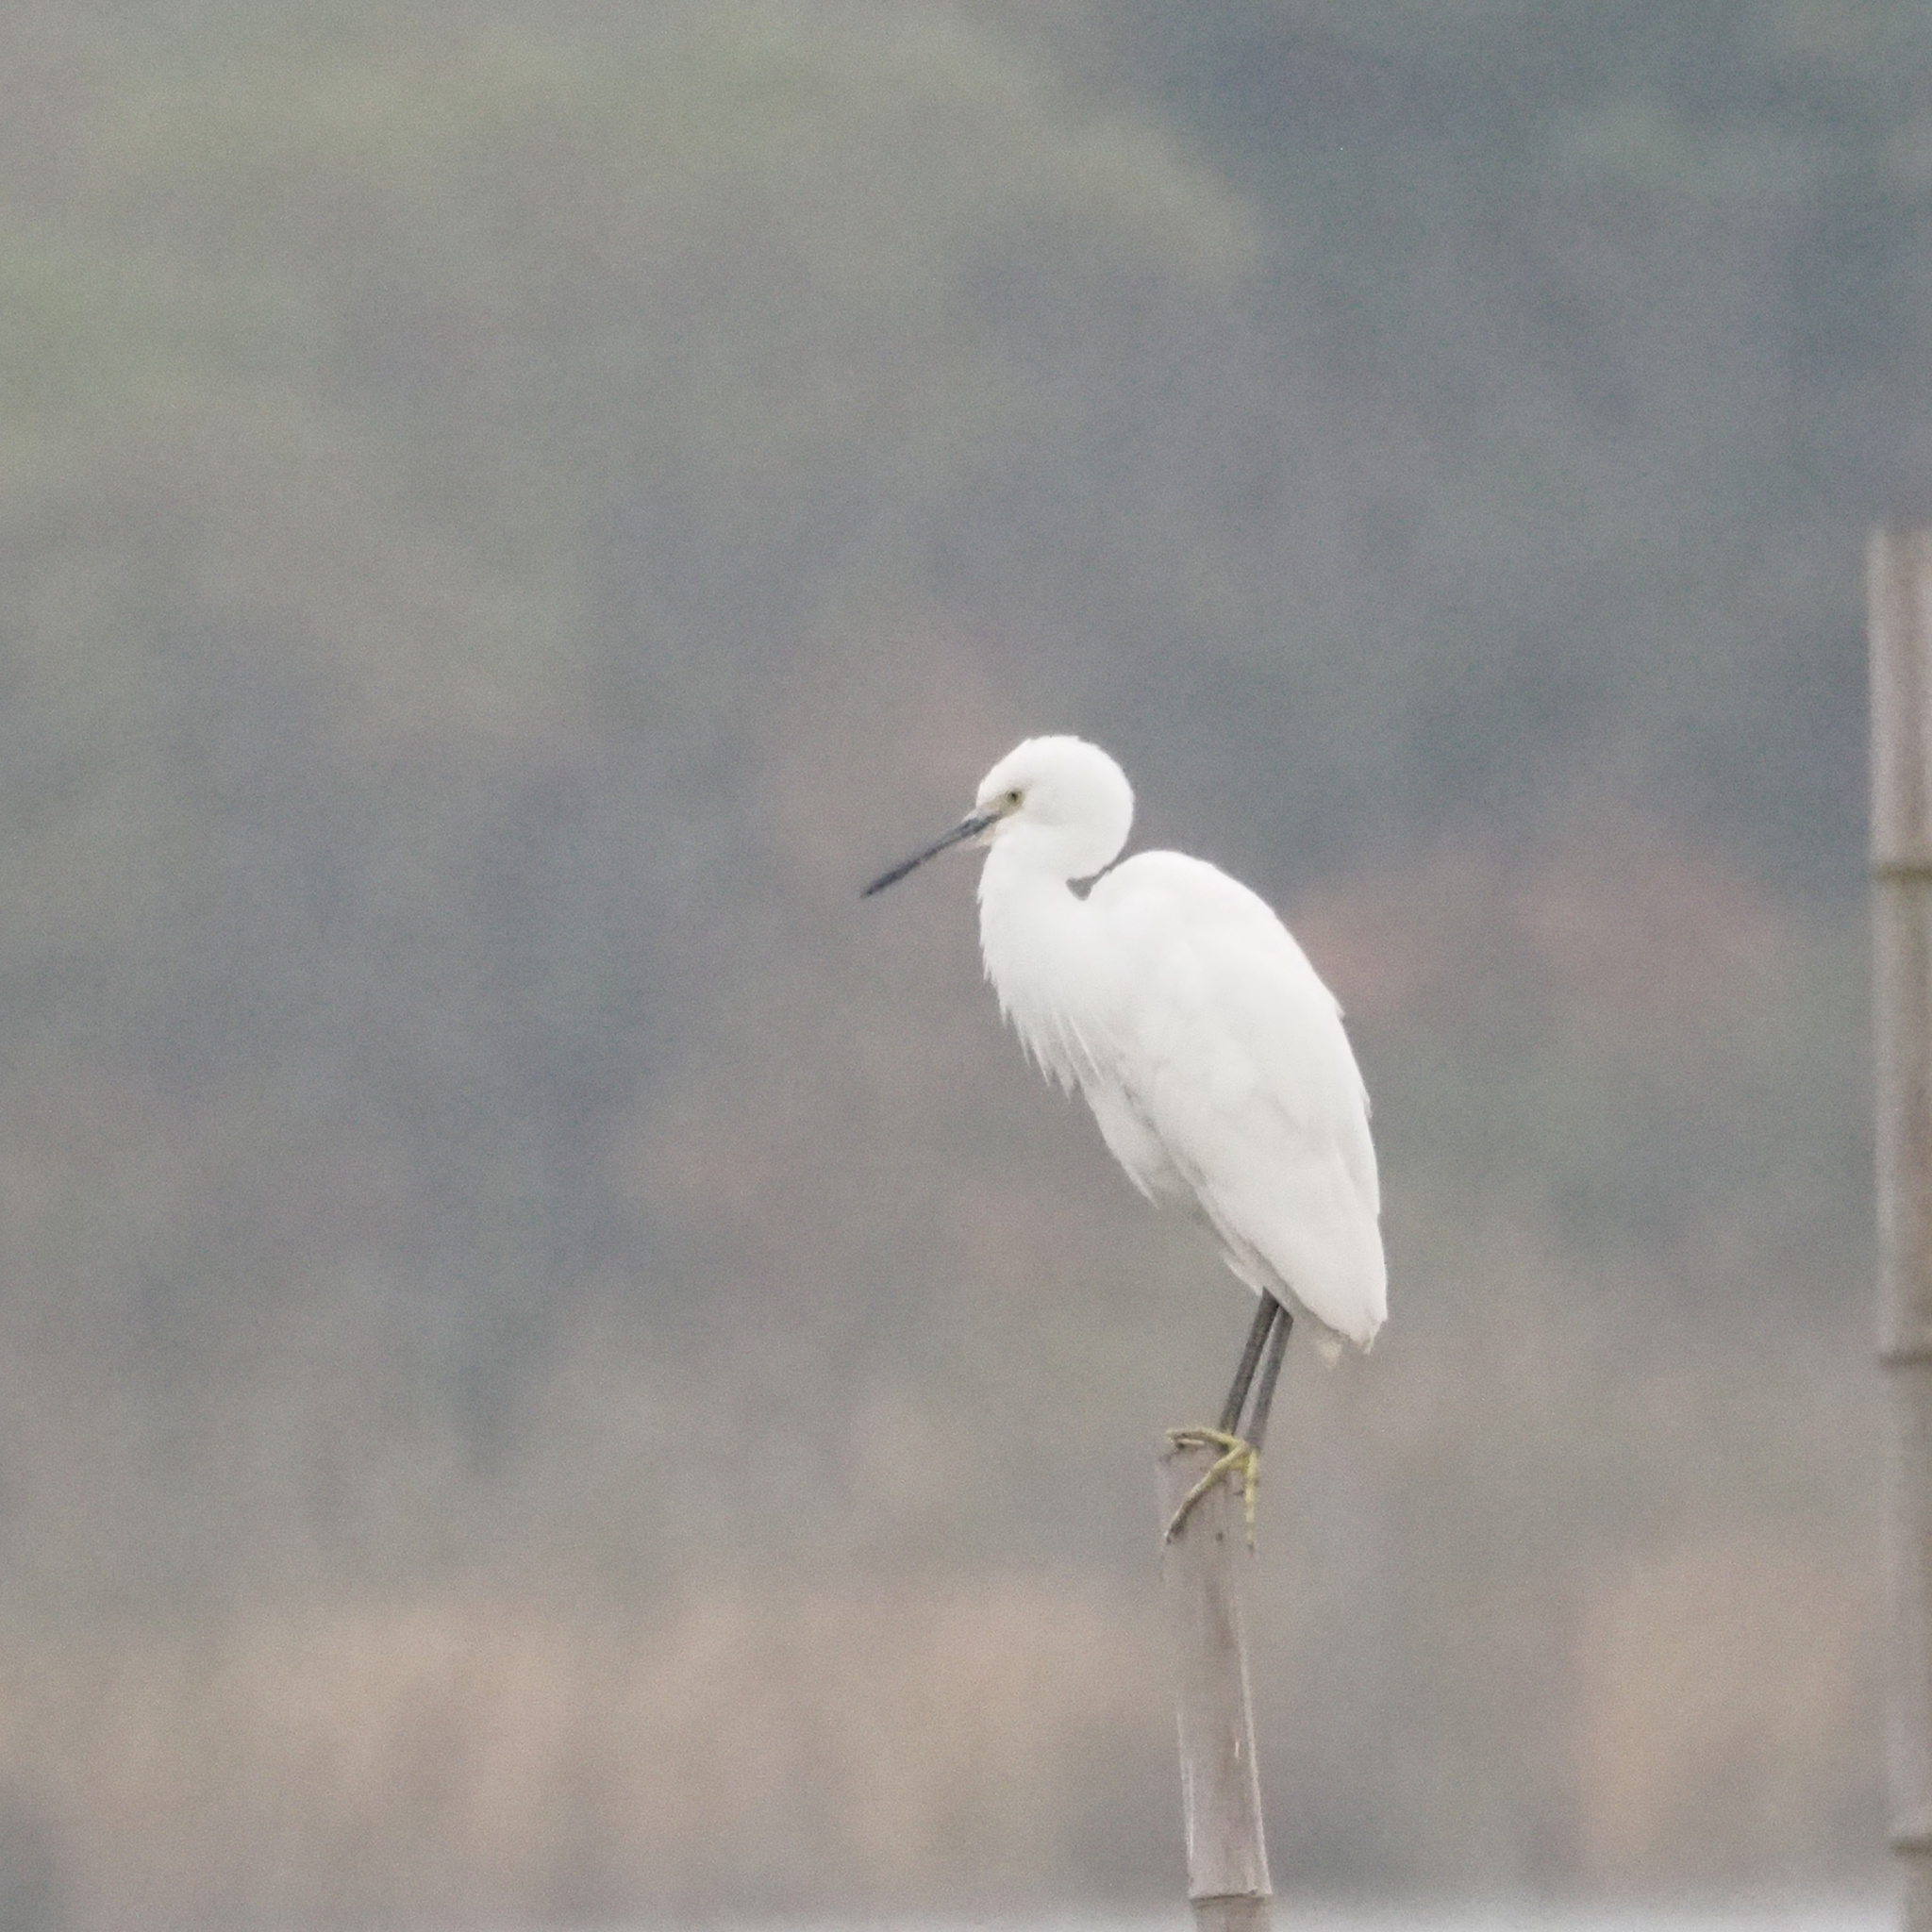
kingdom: Animalia
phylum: Chordata
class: Aves
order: Pelecaniformes
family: Ardeidae
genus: Egretta
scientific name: Egretta garzetta
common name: Little egret
